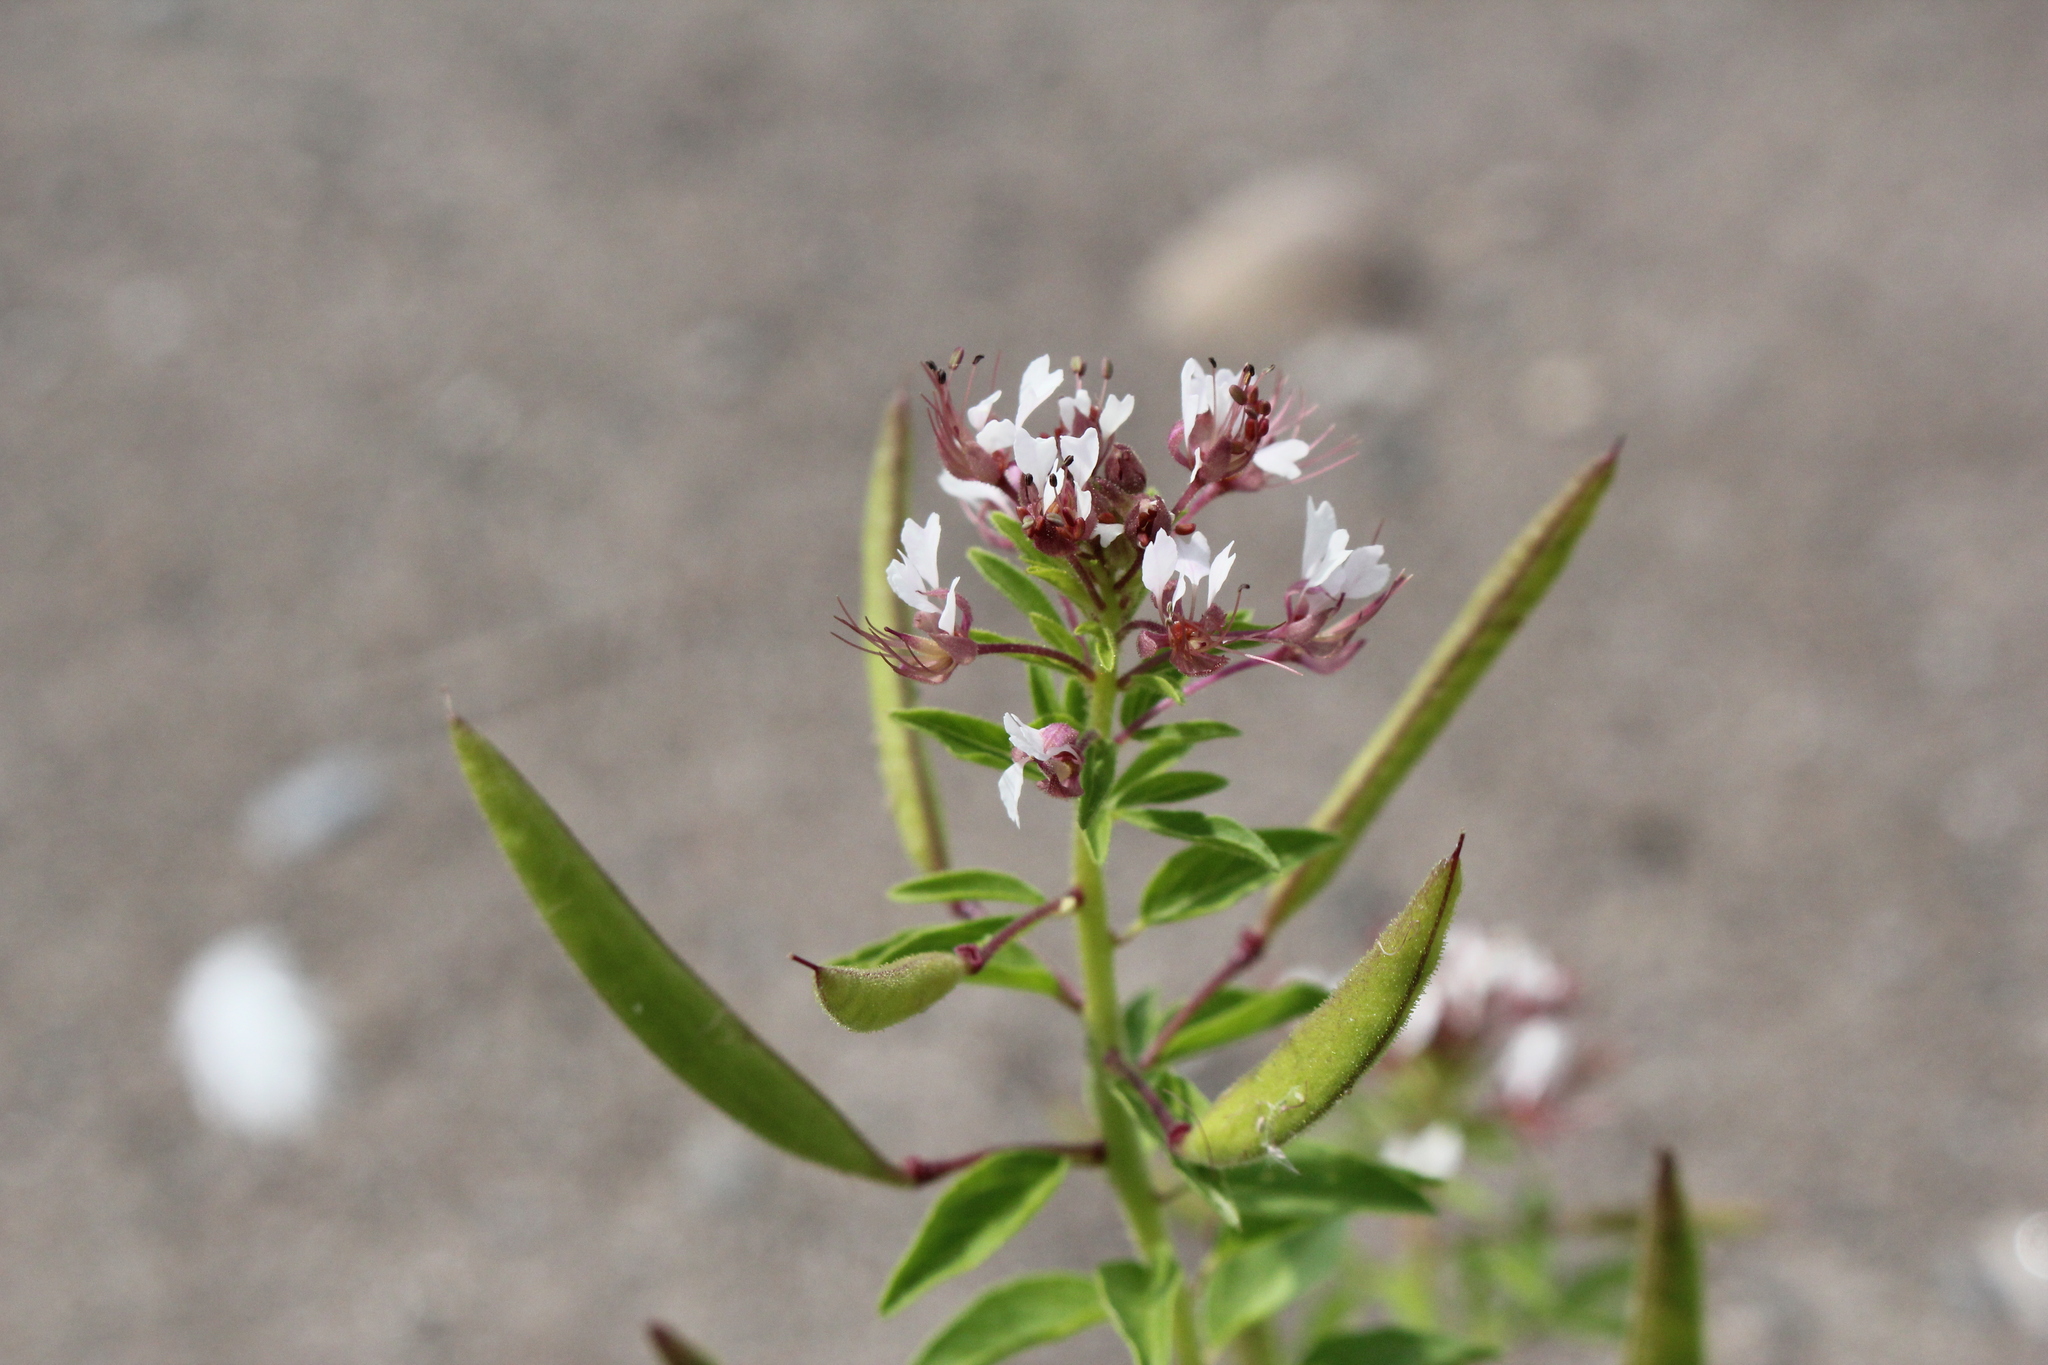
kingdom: Plantae
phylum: Tracheophyta
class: Magnoliopsida
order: Brassicales
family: Cleomaceae
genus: Polanisia
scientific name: Polanisia dodecandra
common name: Clammyweed
